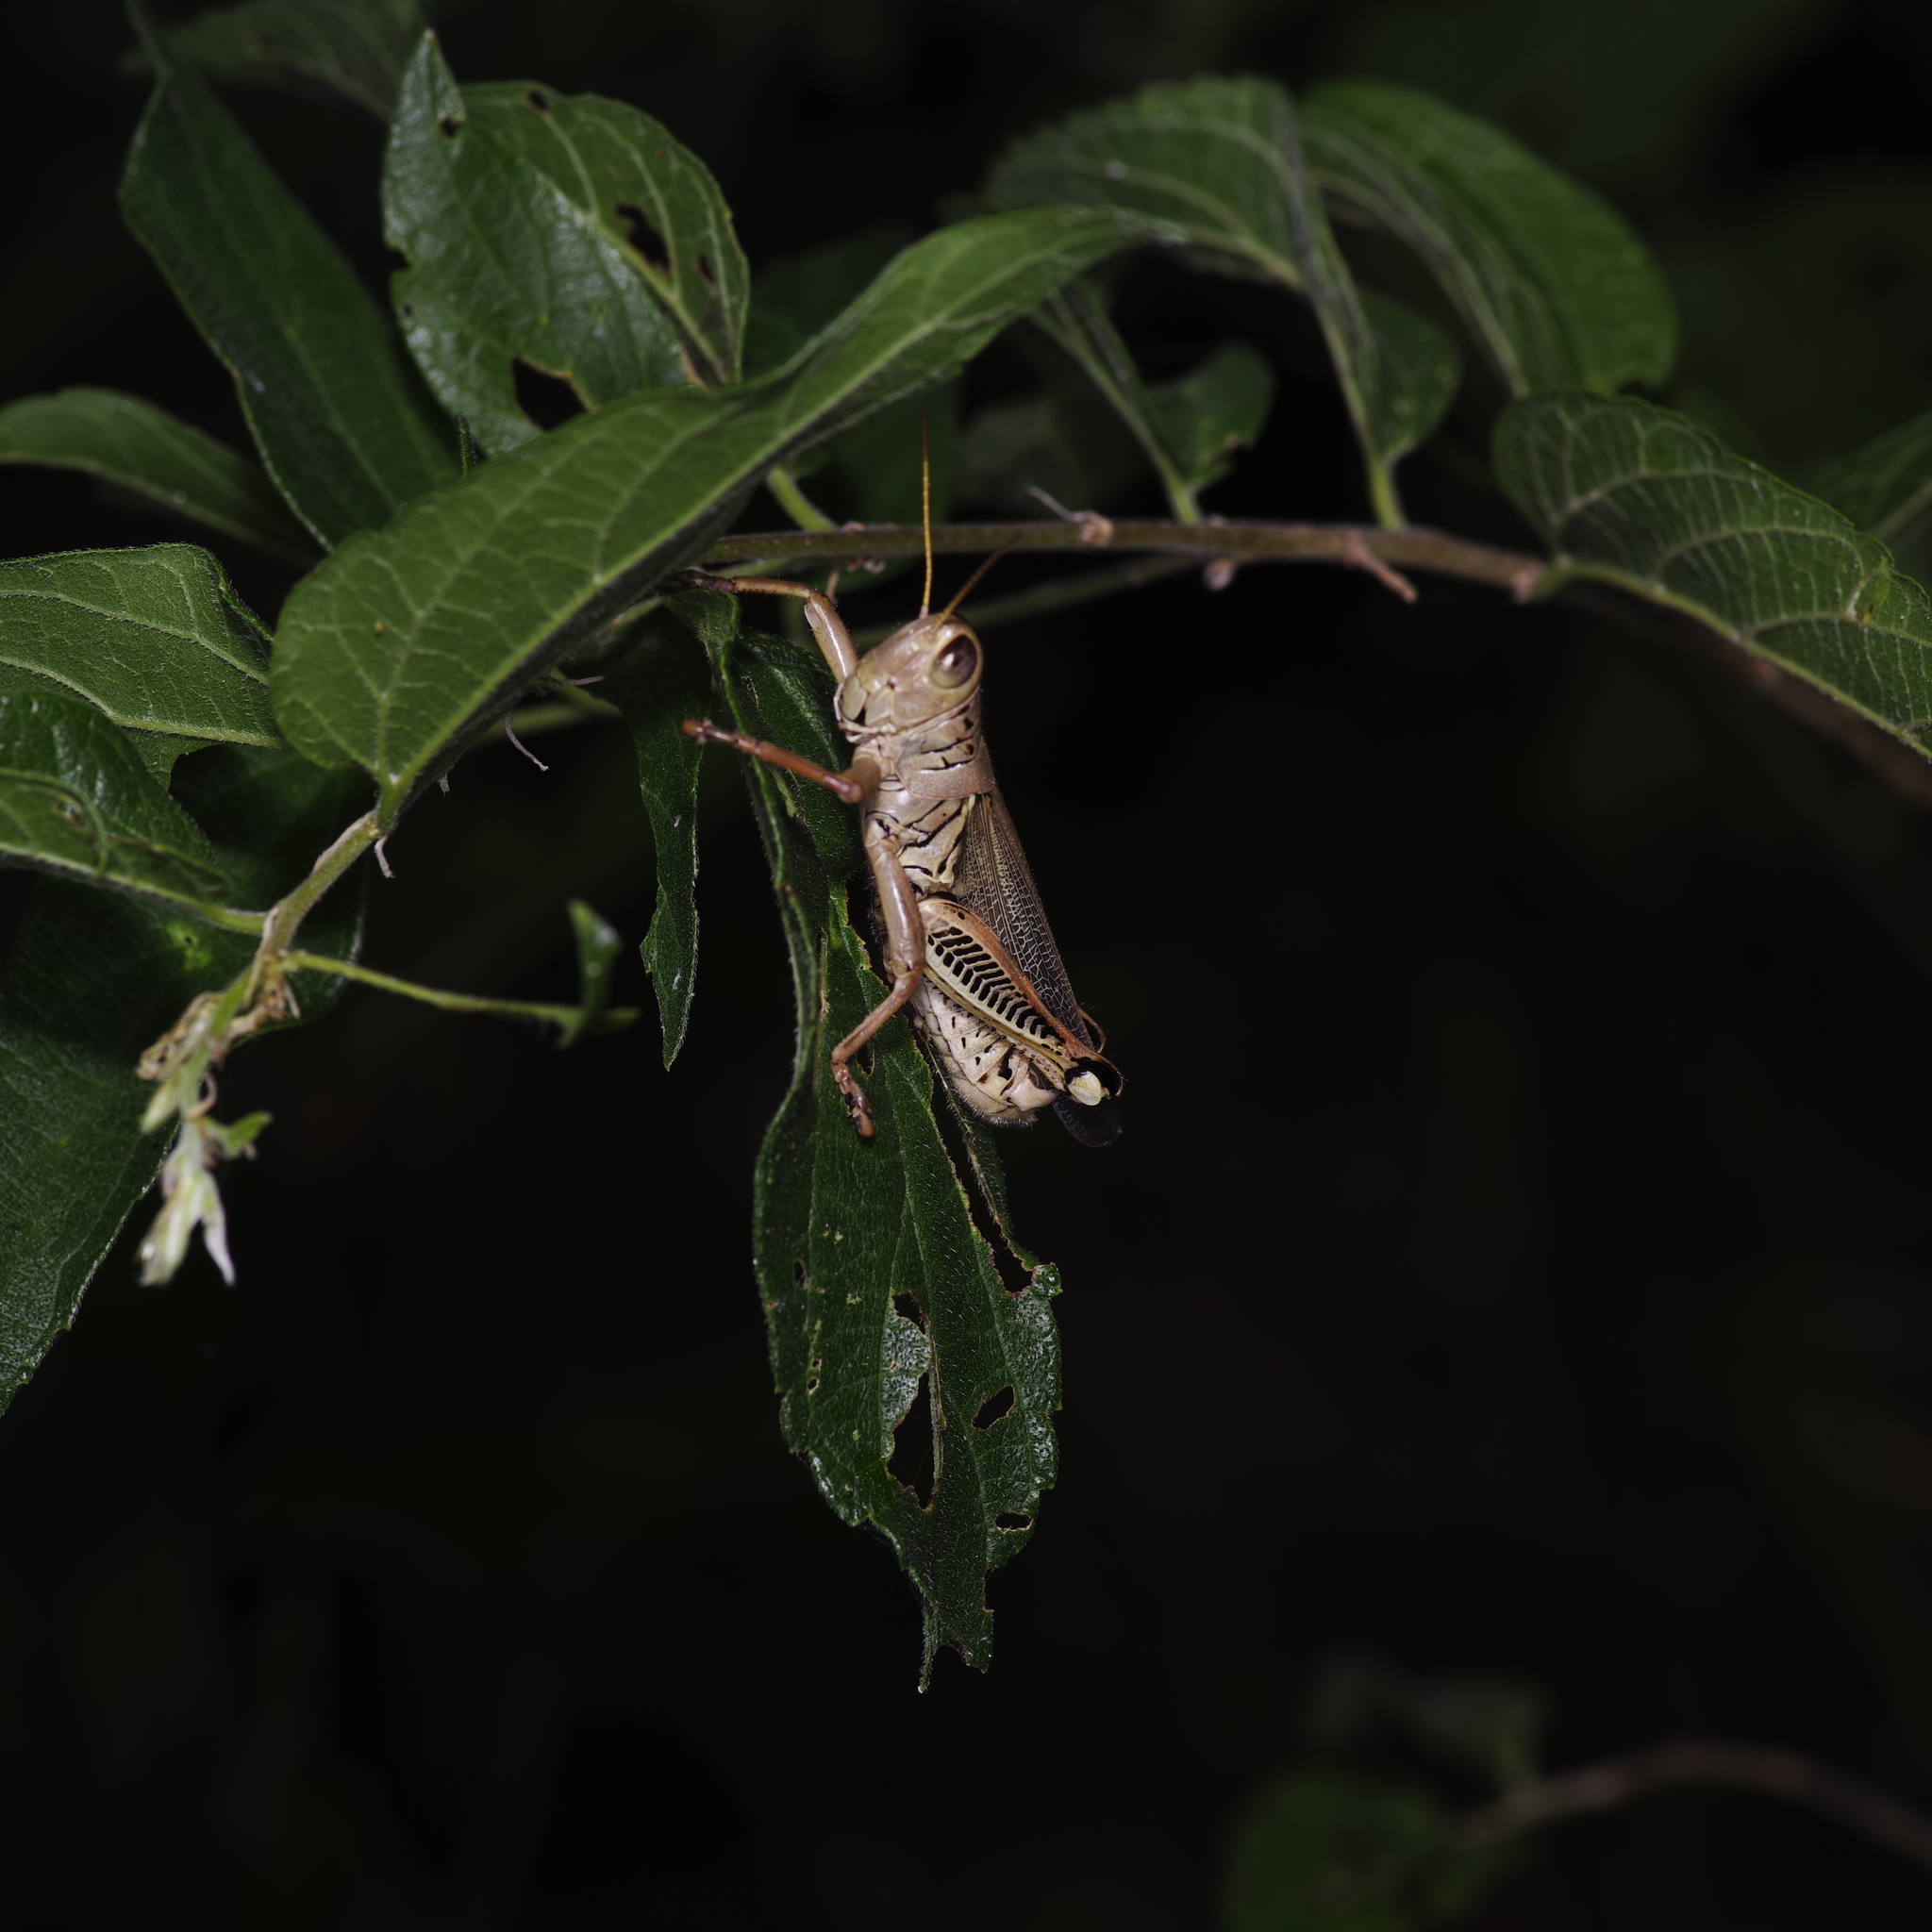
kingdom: Animalia
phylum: Arthropoda
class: Insecta
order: Orthoptera
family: Acrididae
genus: Melanoplus
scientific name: Melanoplus differentialis
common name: Differential grasshopper
